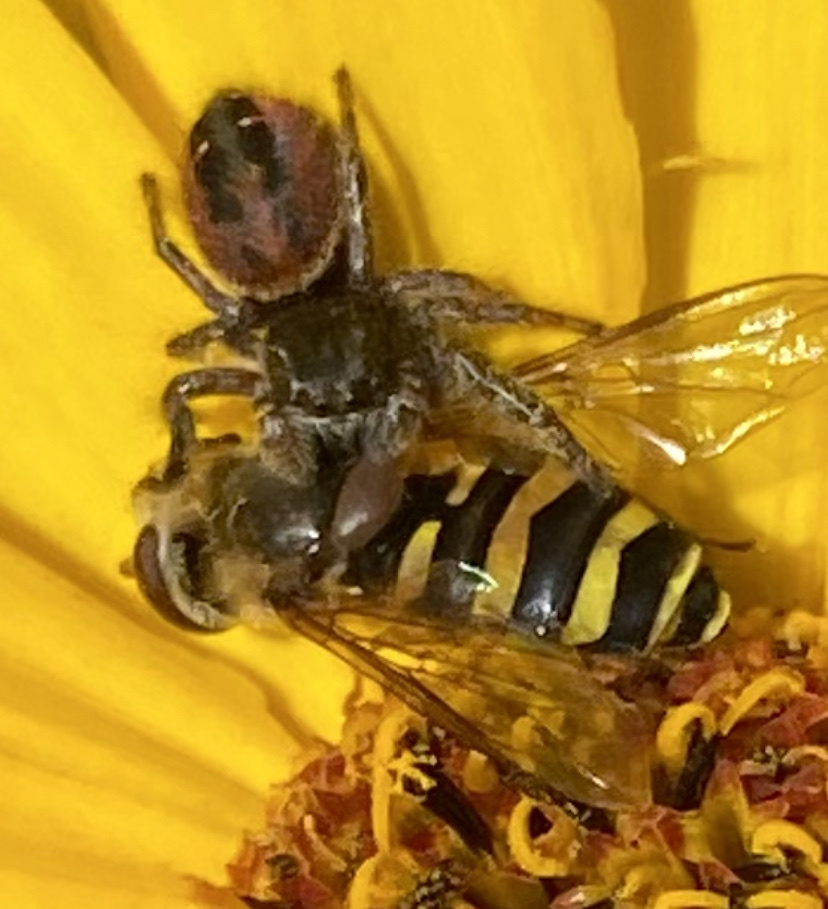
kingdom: Animalia
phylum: Arthropoda
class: Insecta
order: Diptera
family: Syrphidae
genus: Syrphus
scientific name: Syrphus opinator
